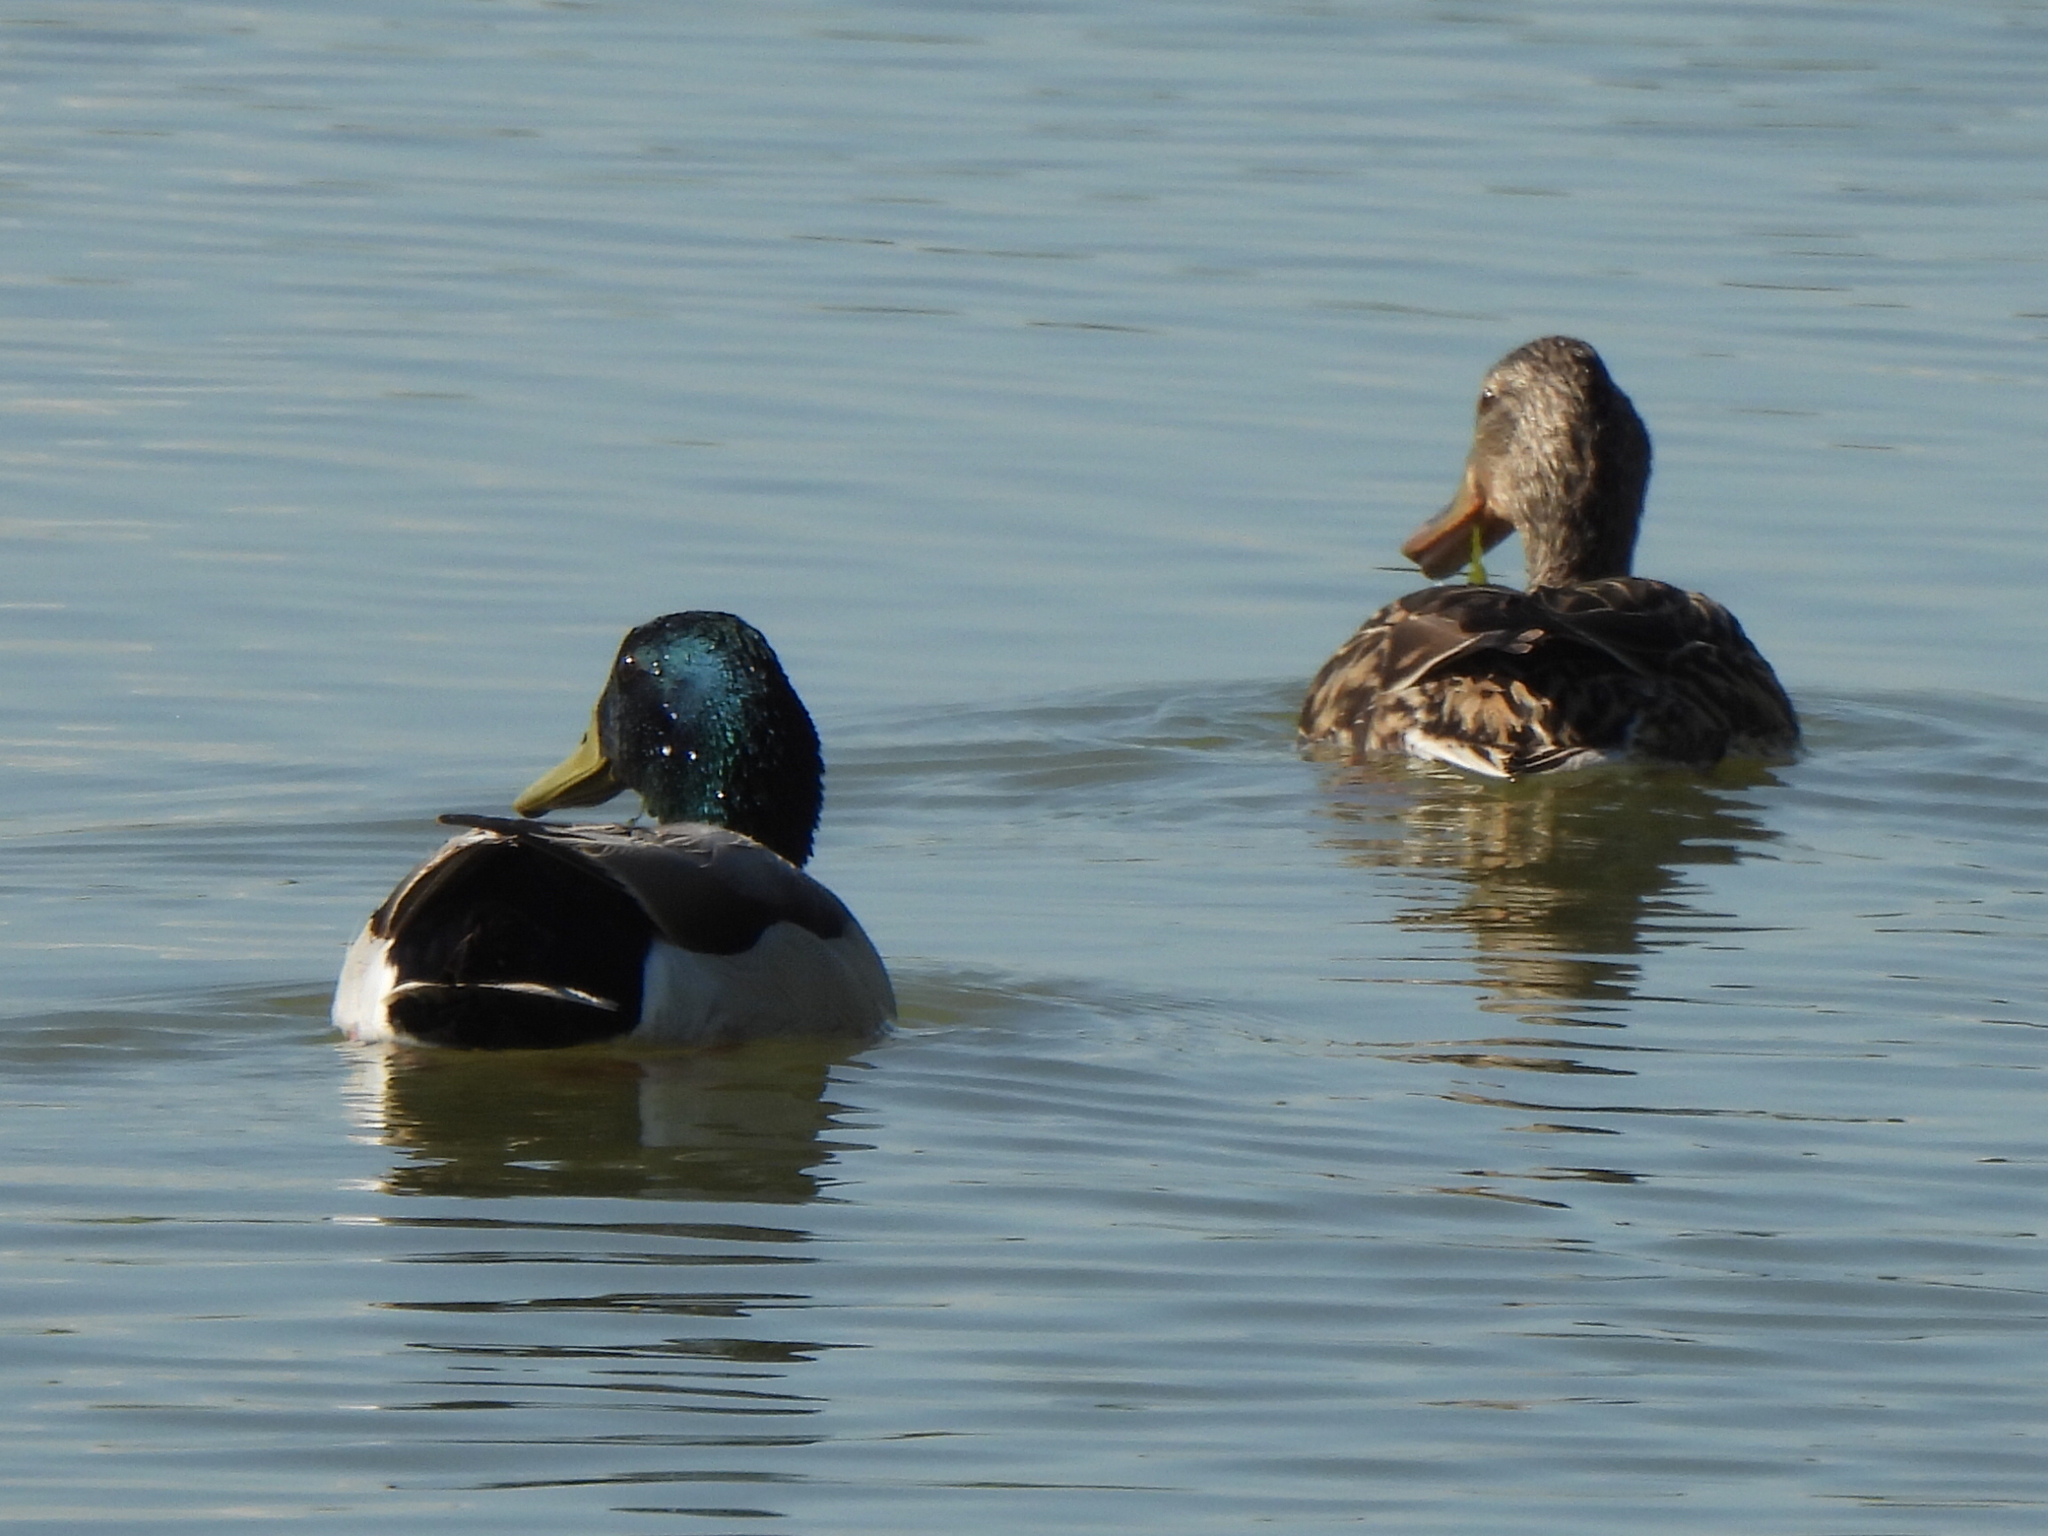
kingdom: Animalia
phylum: Chordata
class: Aves
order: Anseriformes
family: Anatidae
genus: Anas
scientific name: Anas platyrhynchos
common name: Mallard
